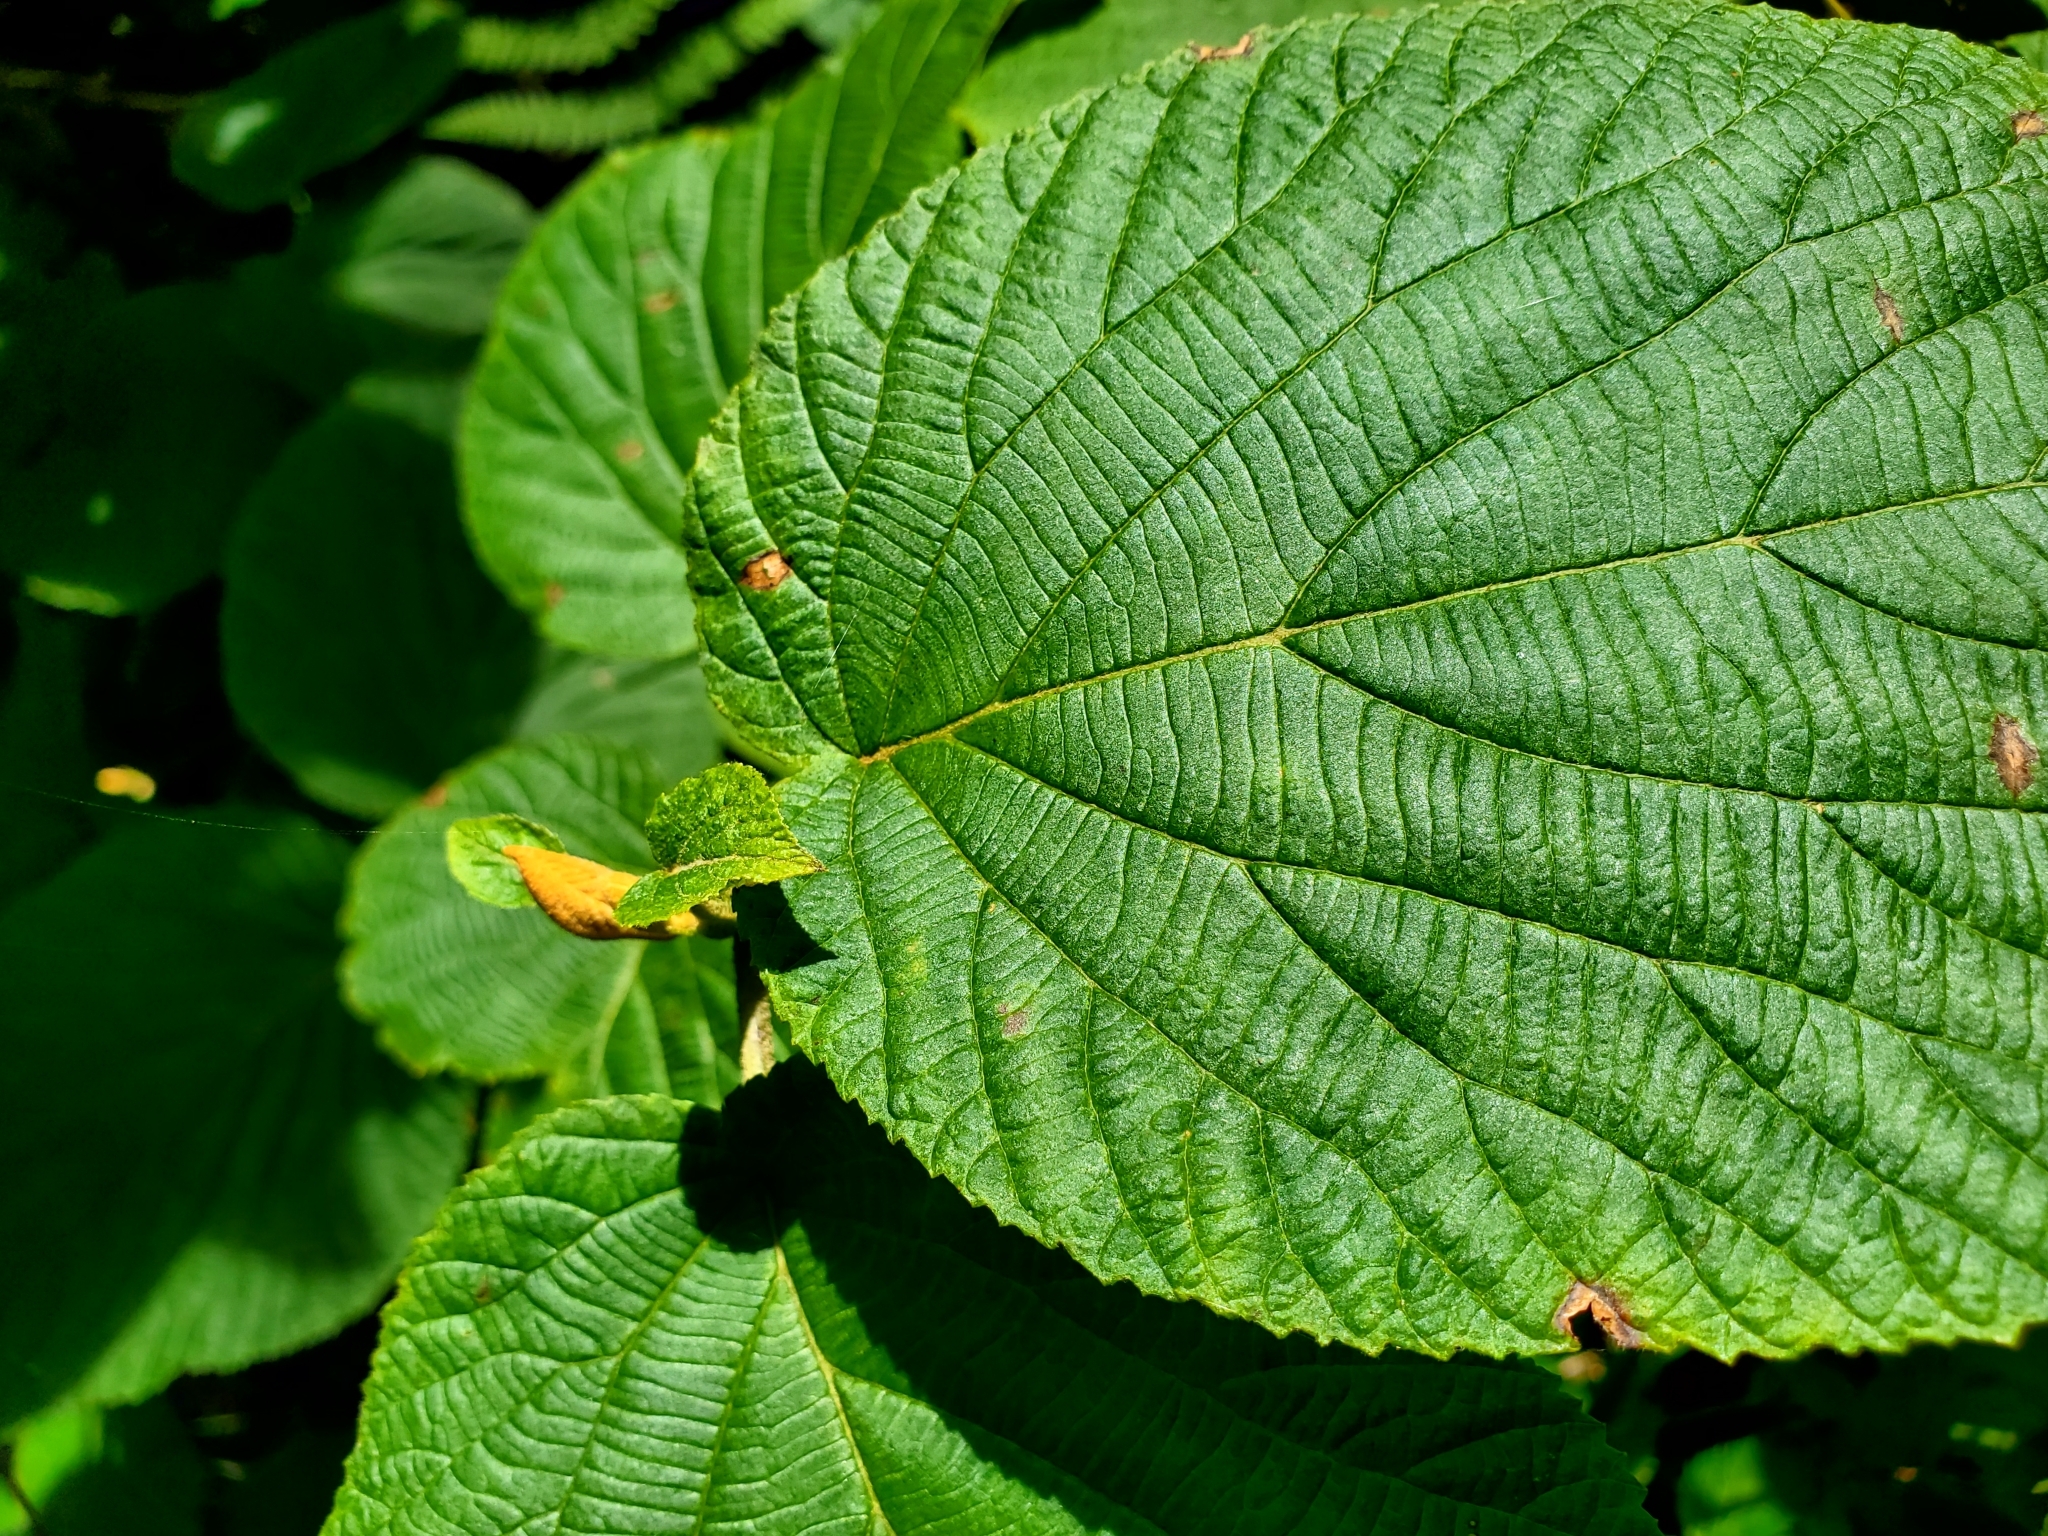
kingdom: Plantae
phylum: Tracheophyta
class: Magnoliopsida
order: Dipsacales
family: Viburnaceae
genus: Viburnum
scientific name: Viburnum lantanoides
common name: Hobblebush
